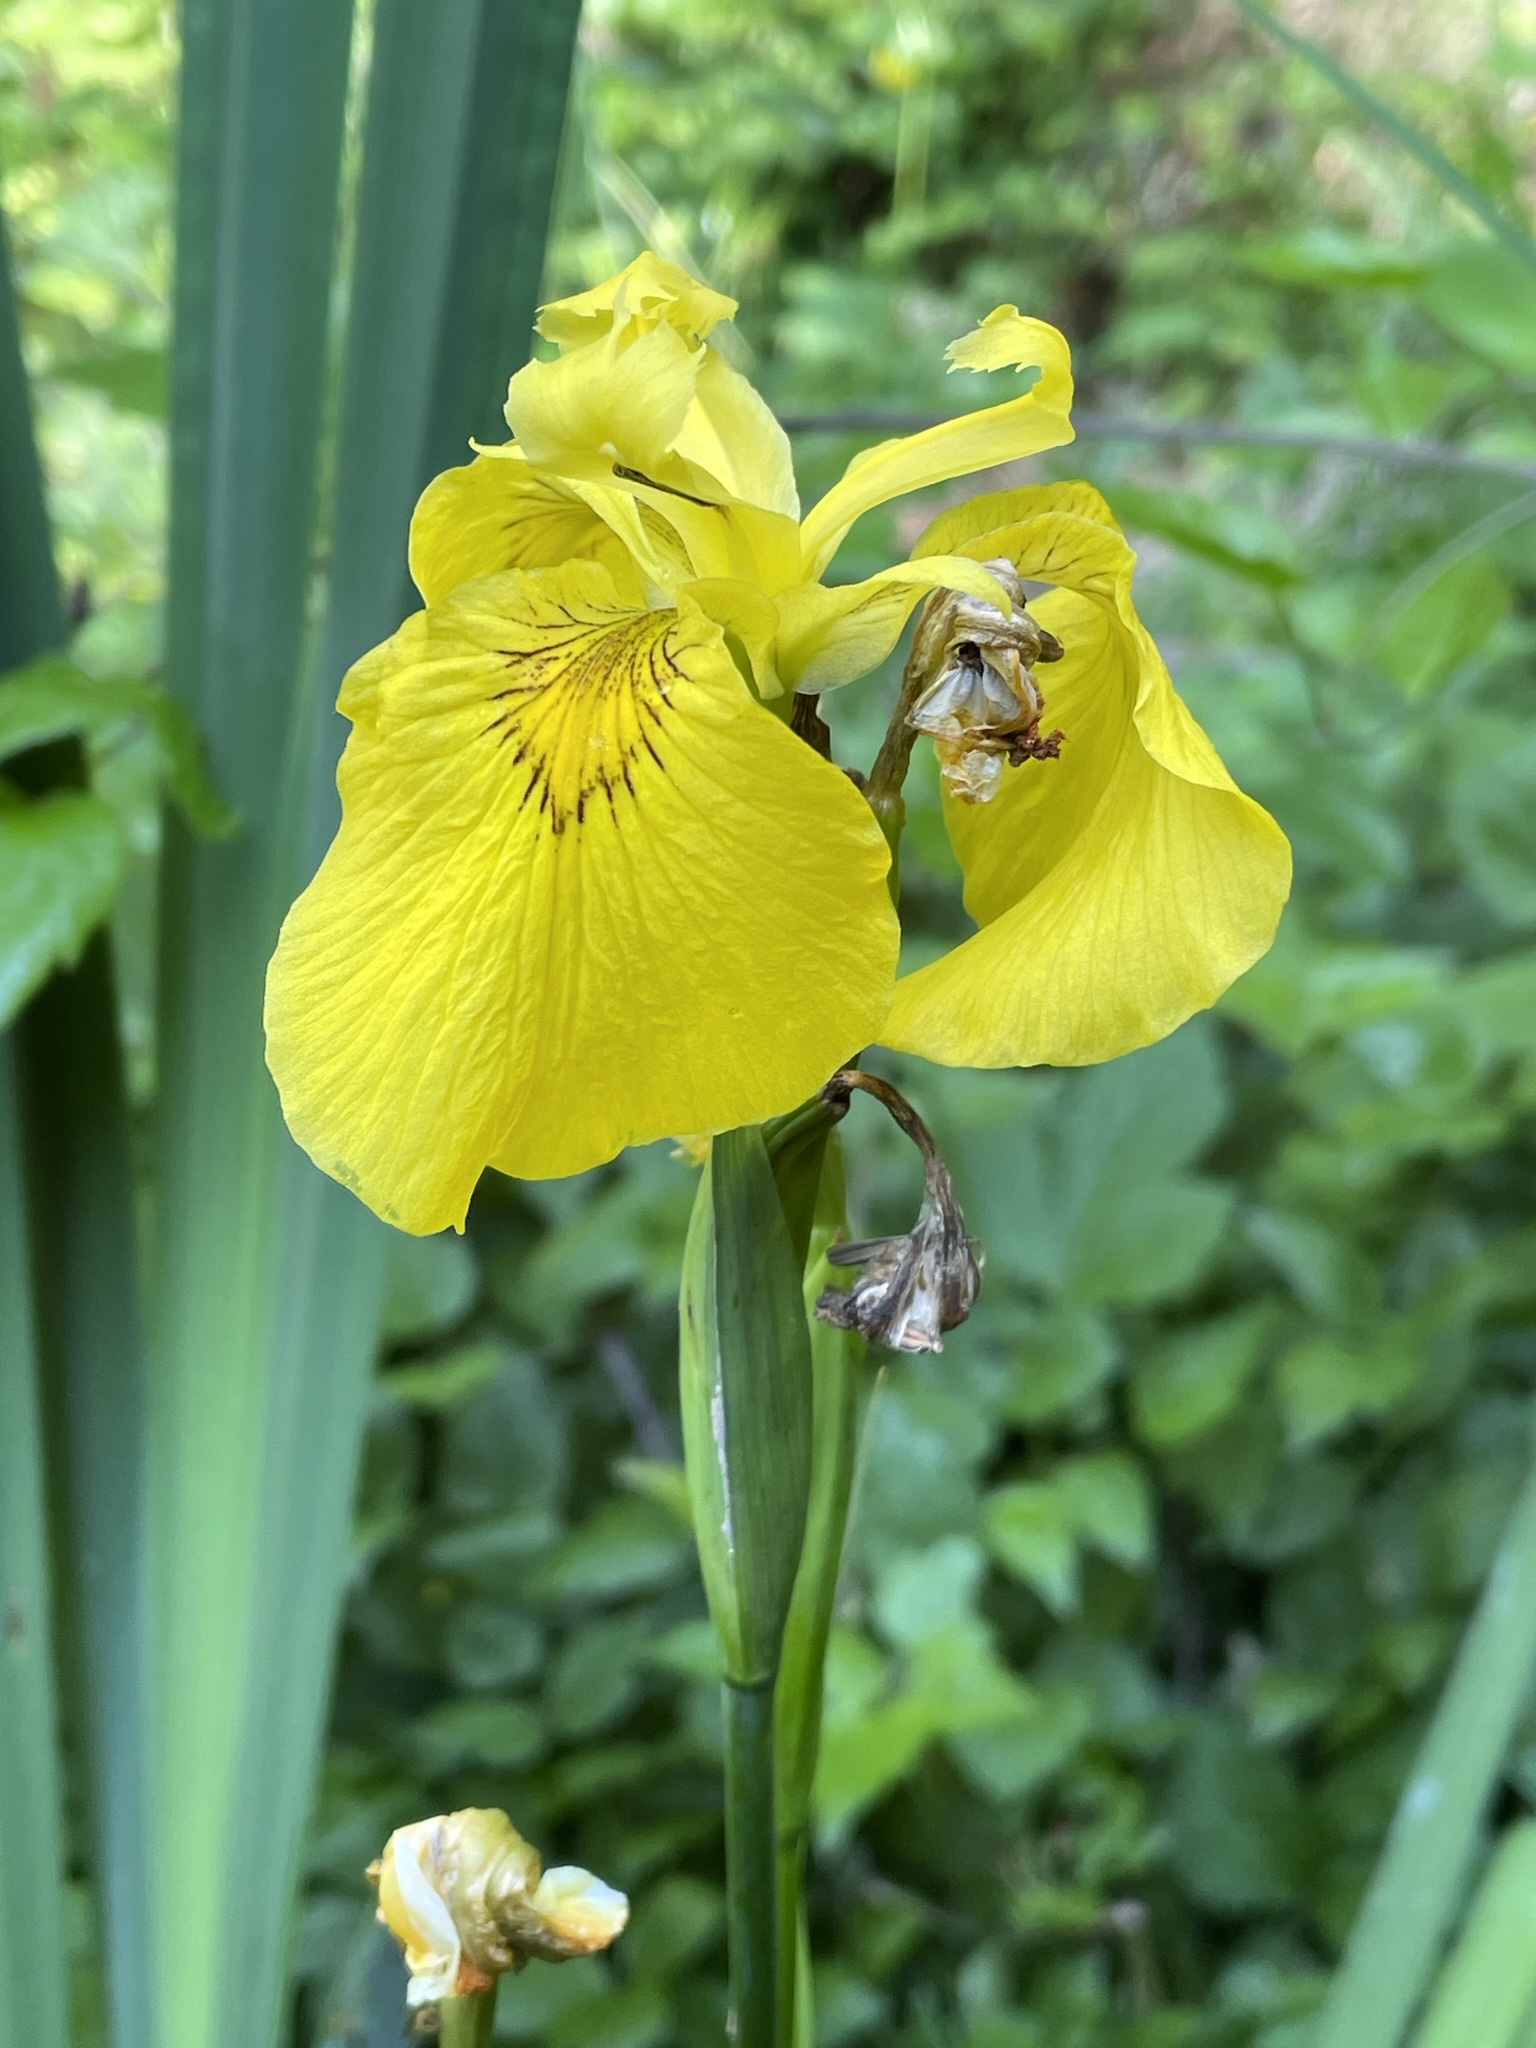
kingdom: Plantae
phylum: Tracheophyta
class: Liliopsida
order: Asparagales
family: Iridaceae
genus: Iris
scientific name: Iris pseudacorus
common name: Yellow flag
